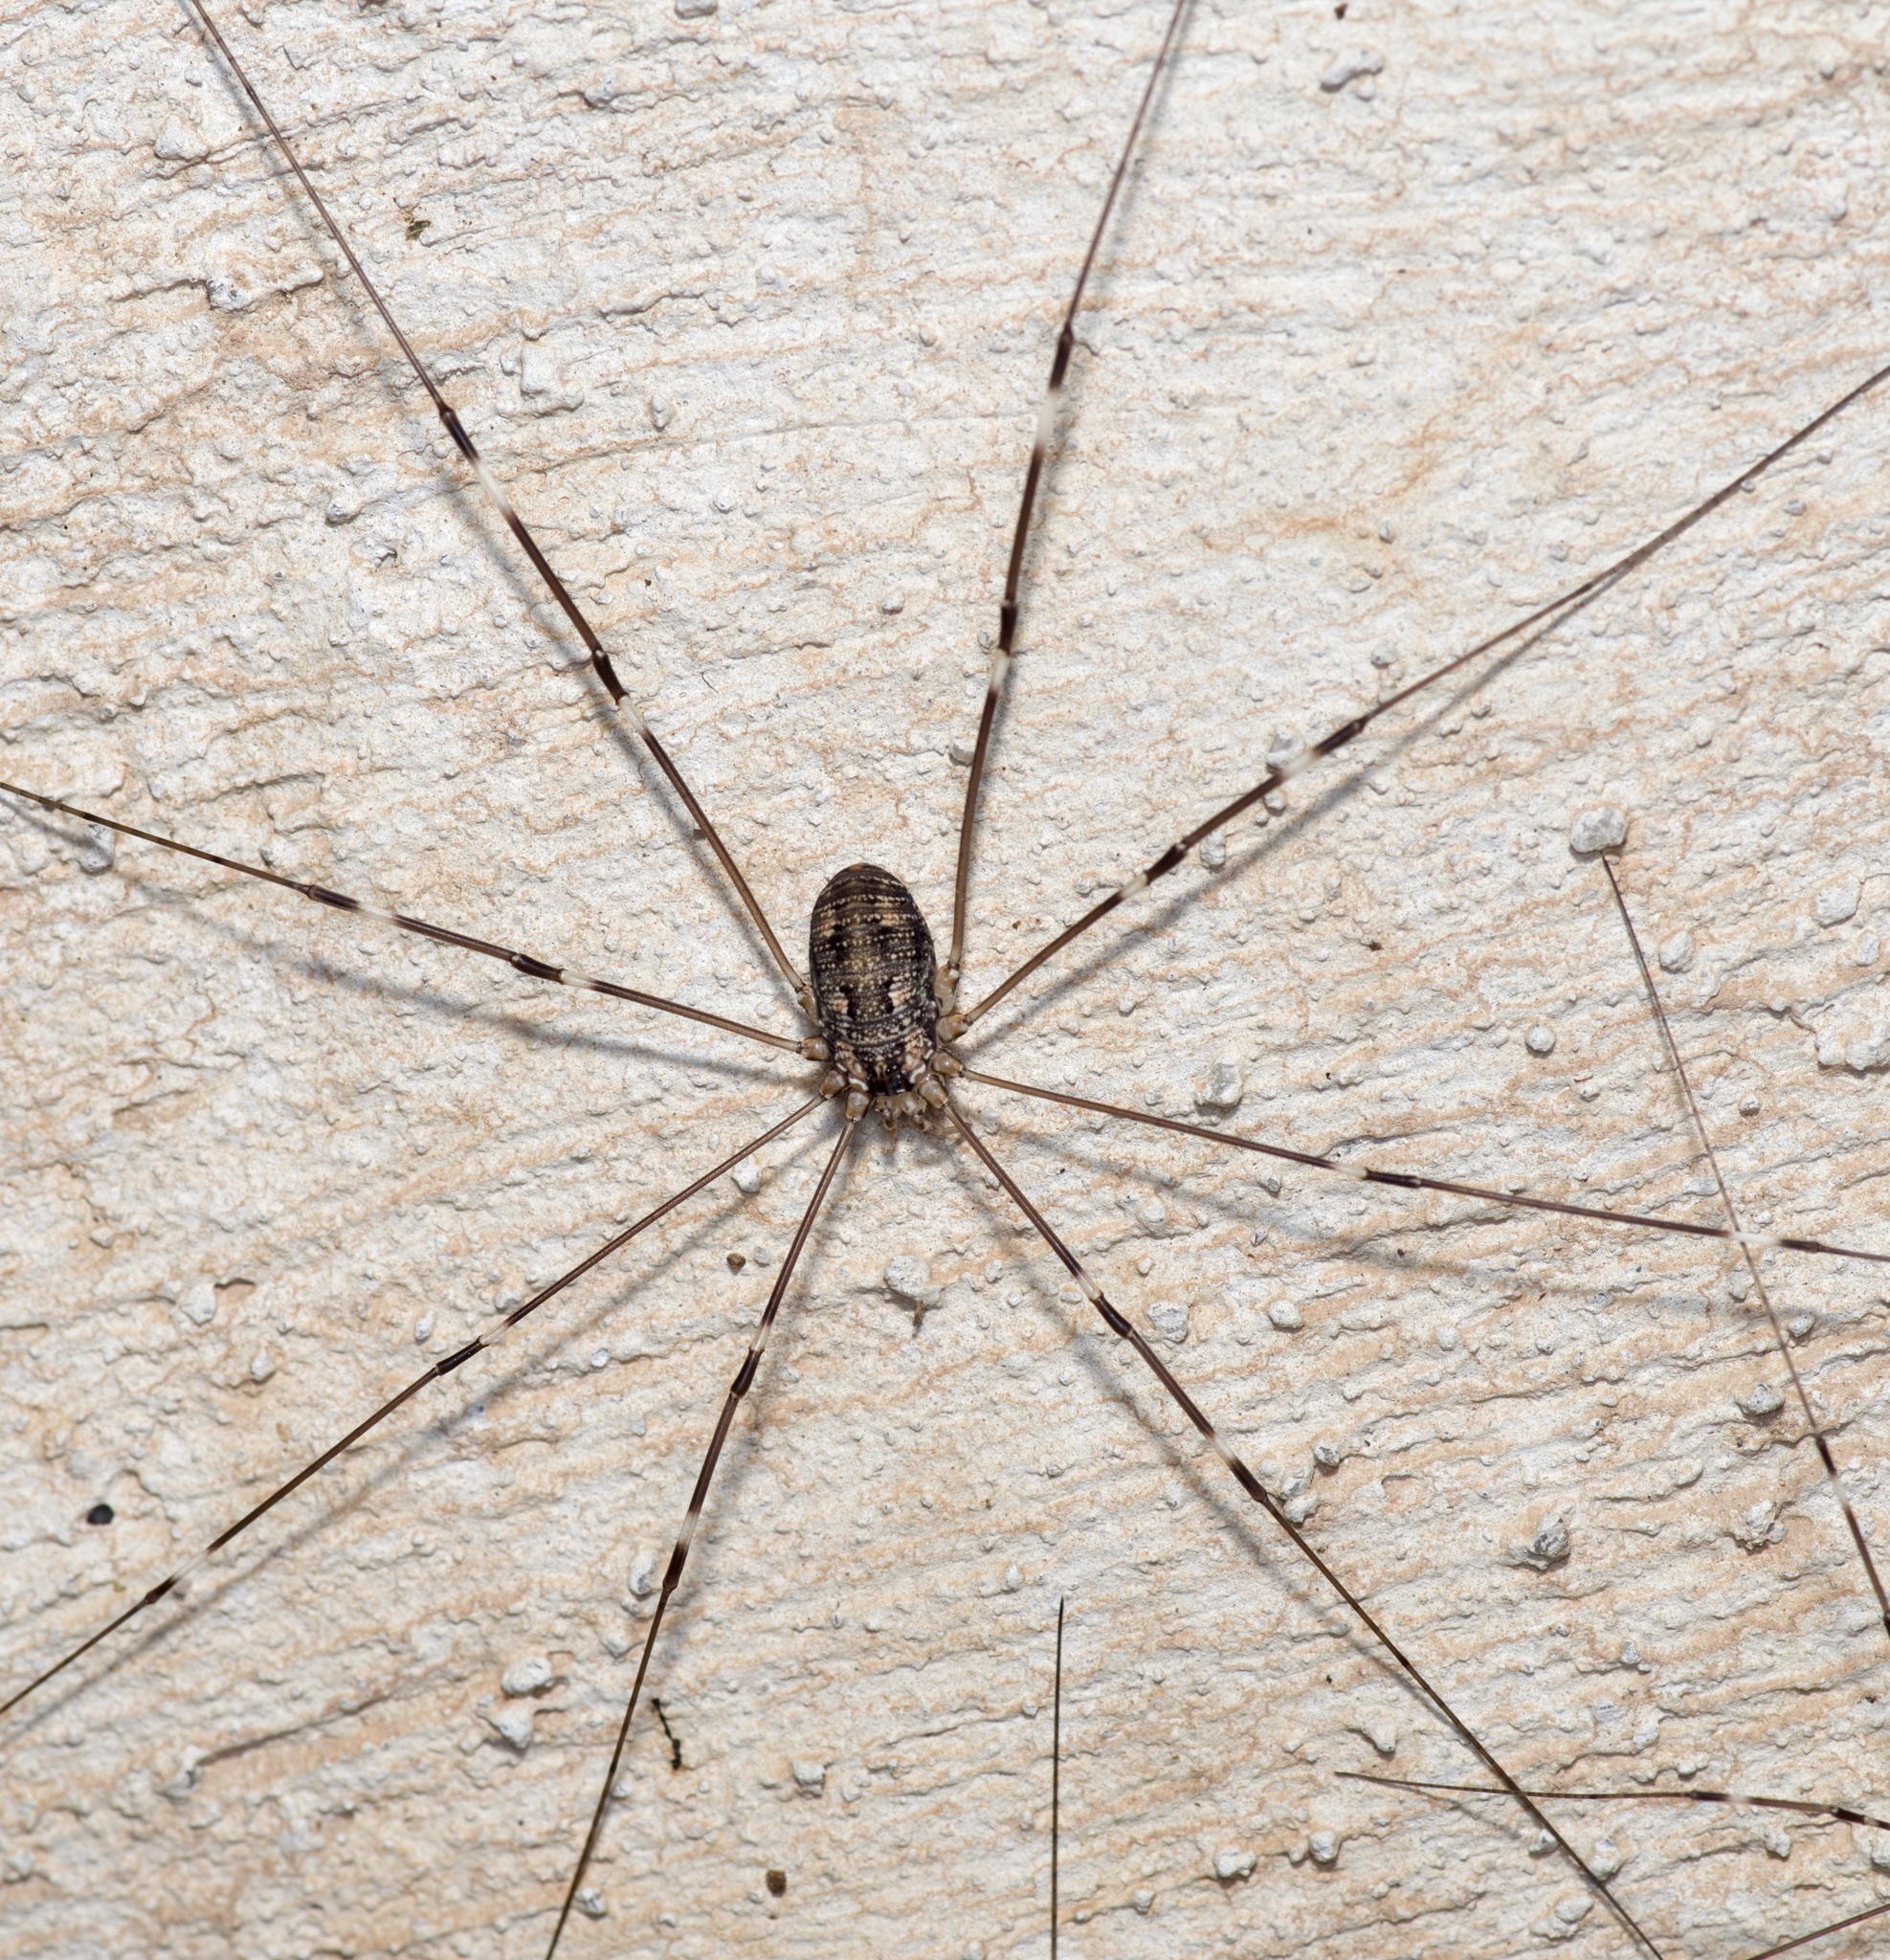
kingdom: Animalia
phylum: Arthropoda
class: Arachnida
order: Opiliones
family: Sclerosomatidae
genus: Leiobunum
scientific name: Leiobunum townsendi
